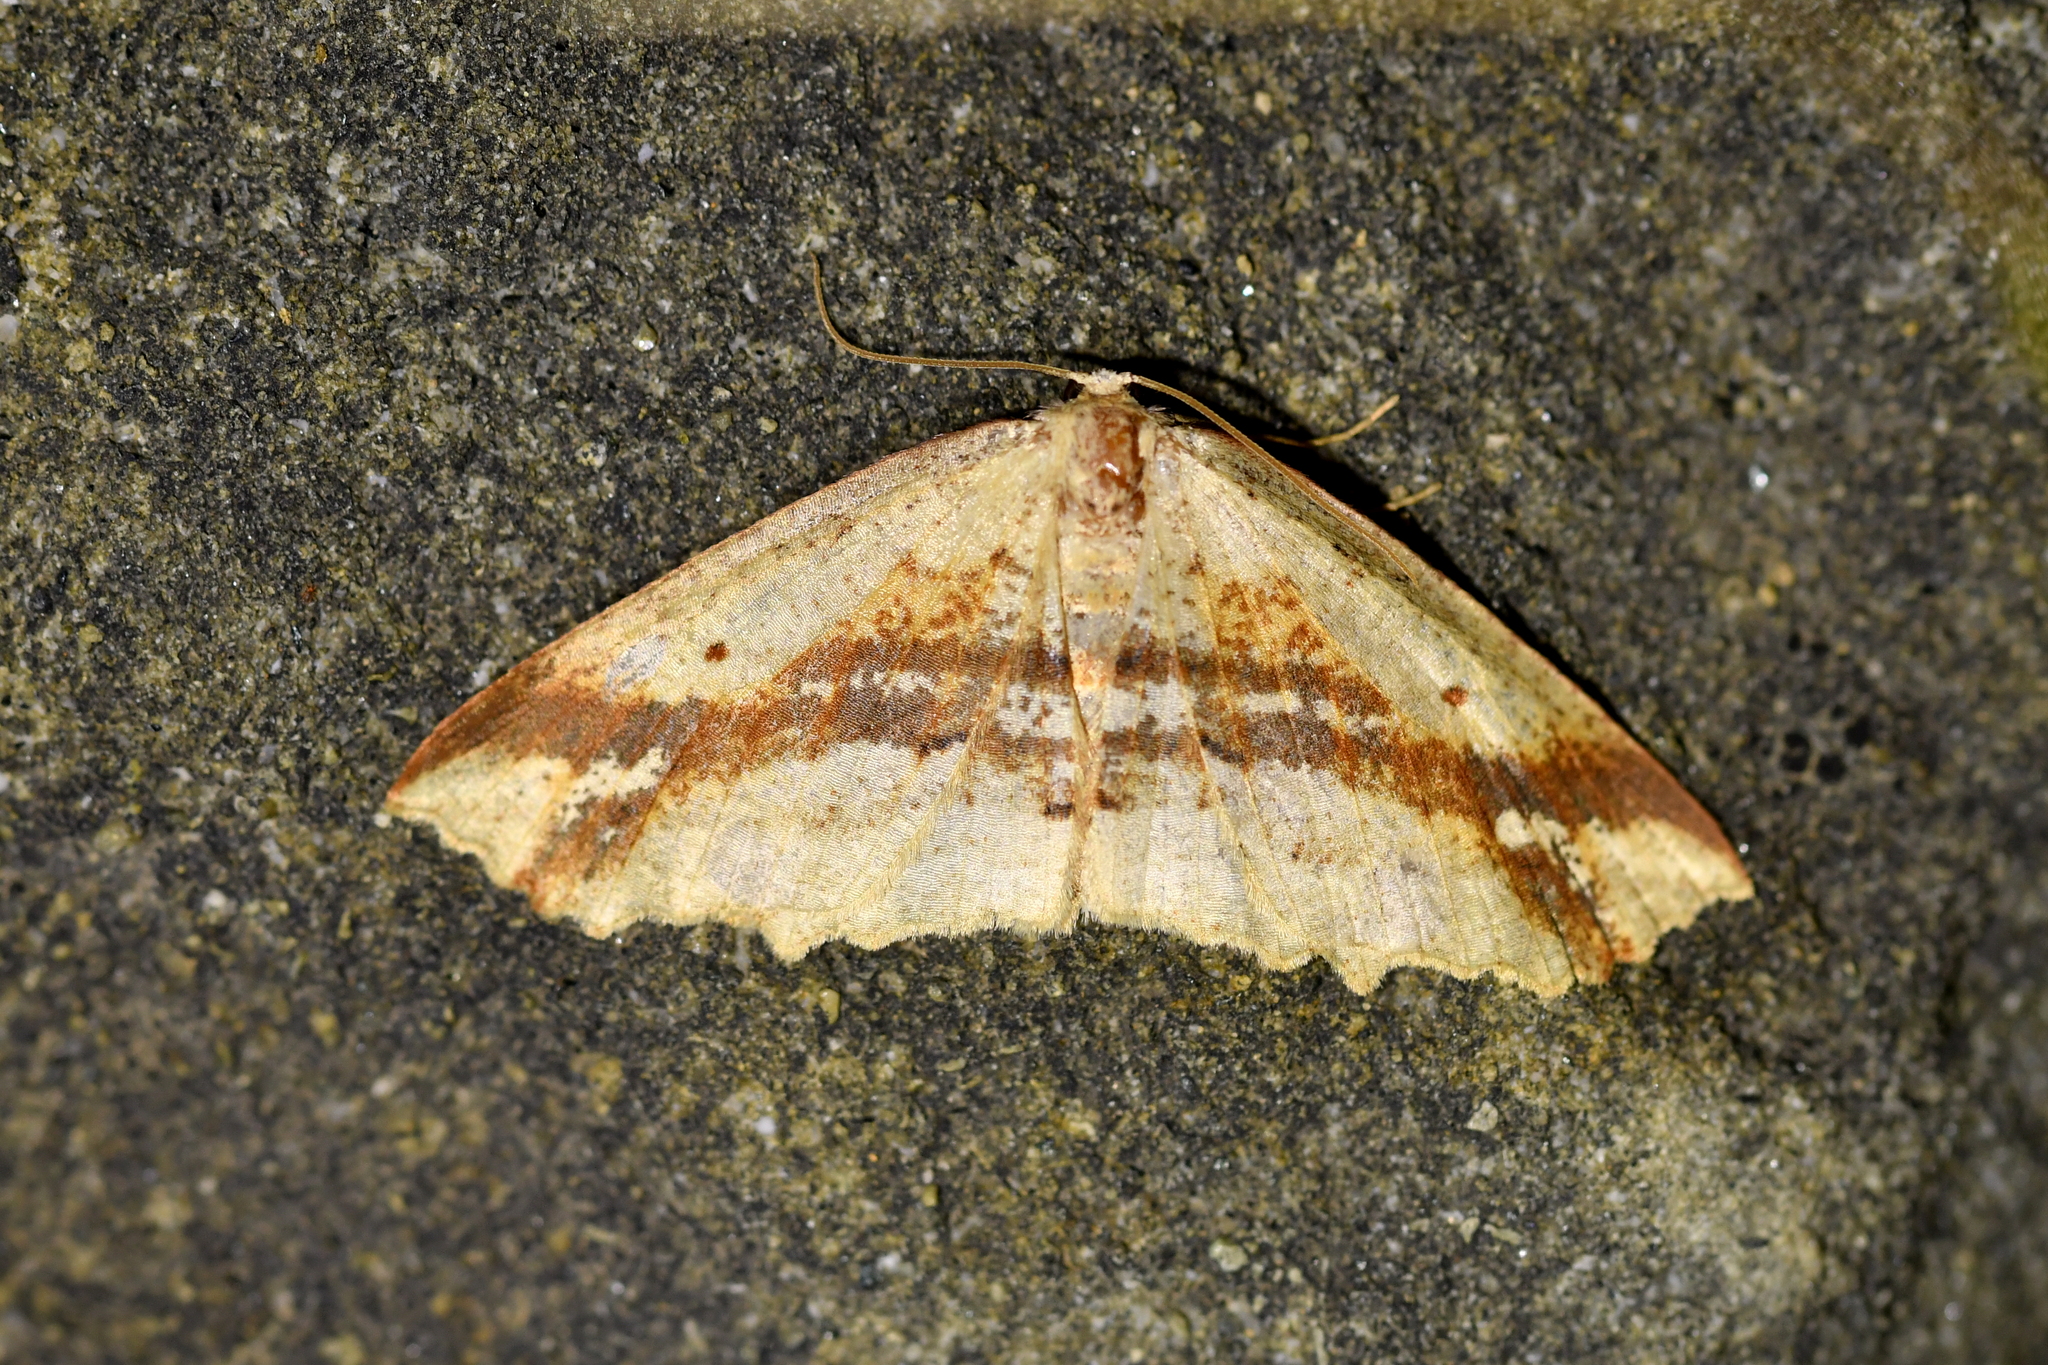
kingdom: Animalia
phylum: Arthropoda
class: Insecta
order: Lepidoptera
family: Geometridae
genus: Xyridacma
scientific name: Xyridacma veronicae
